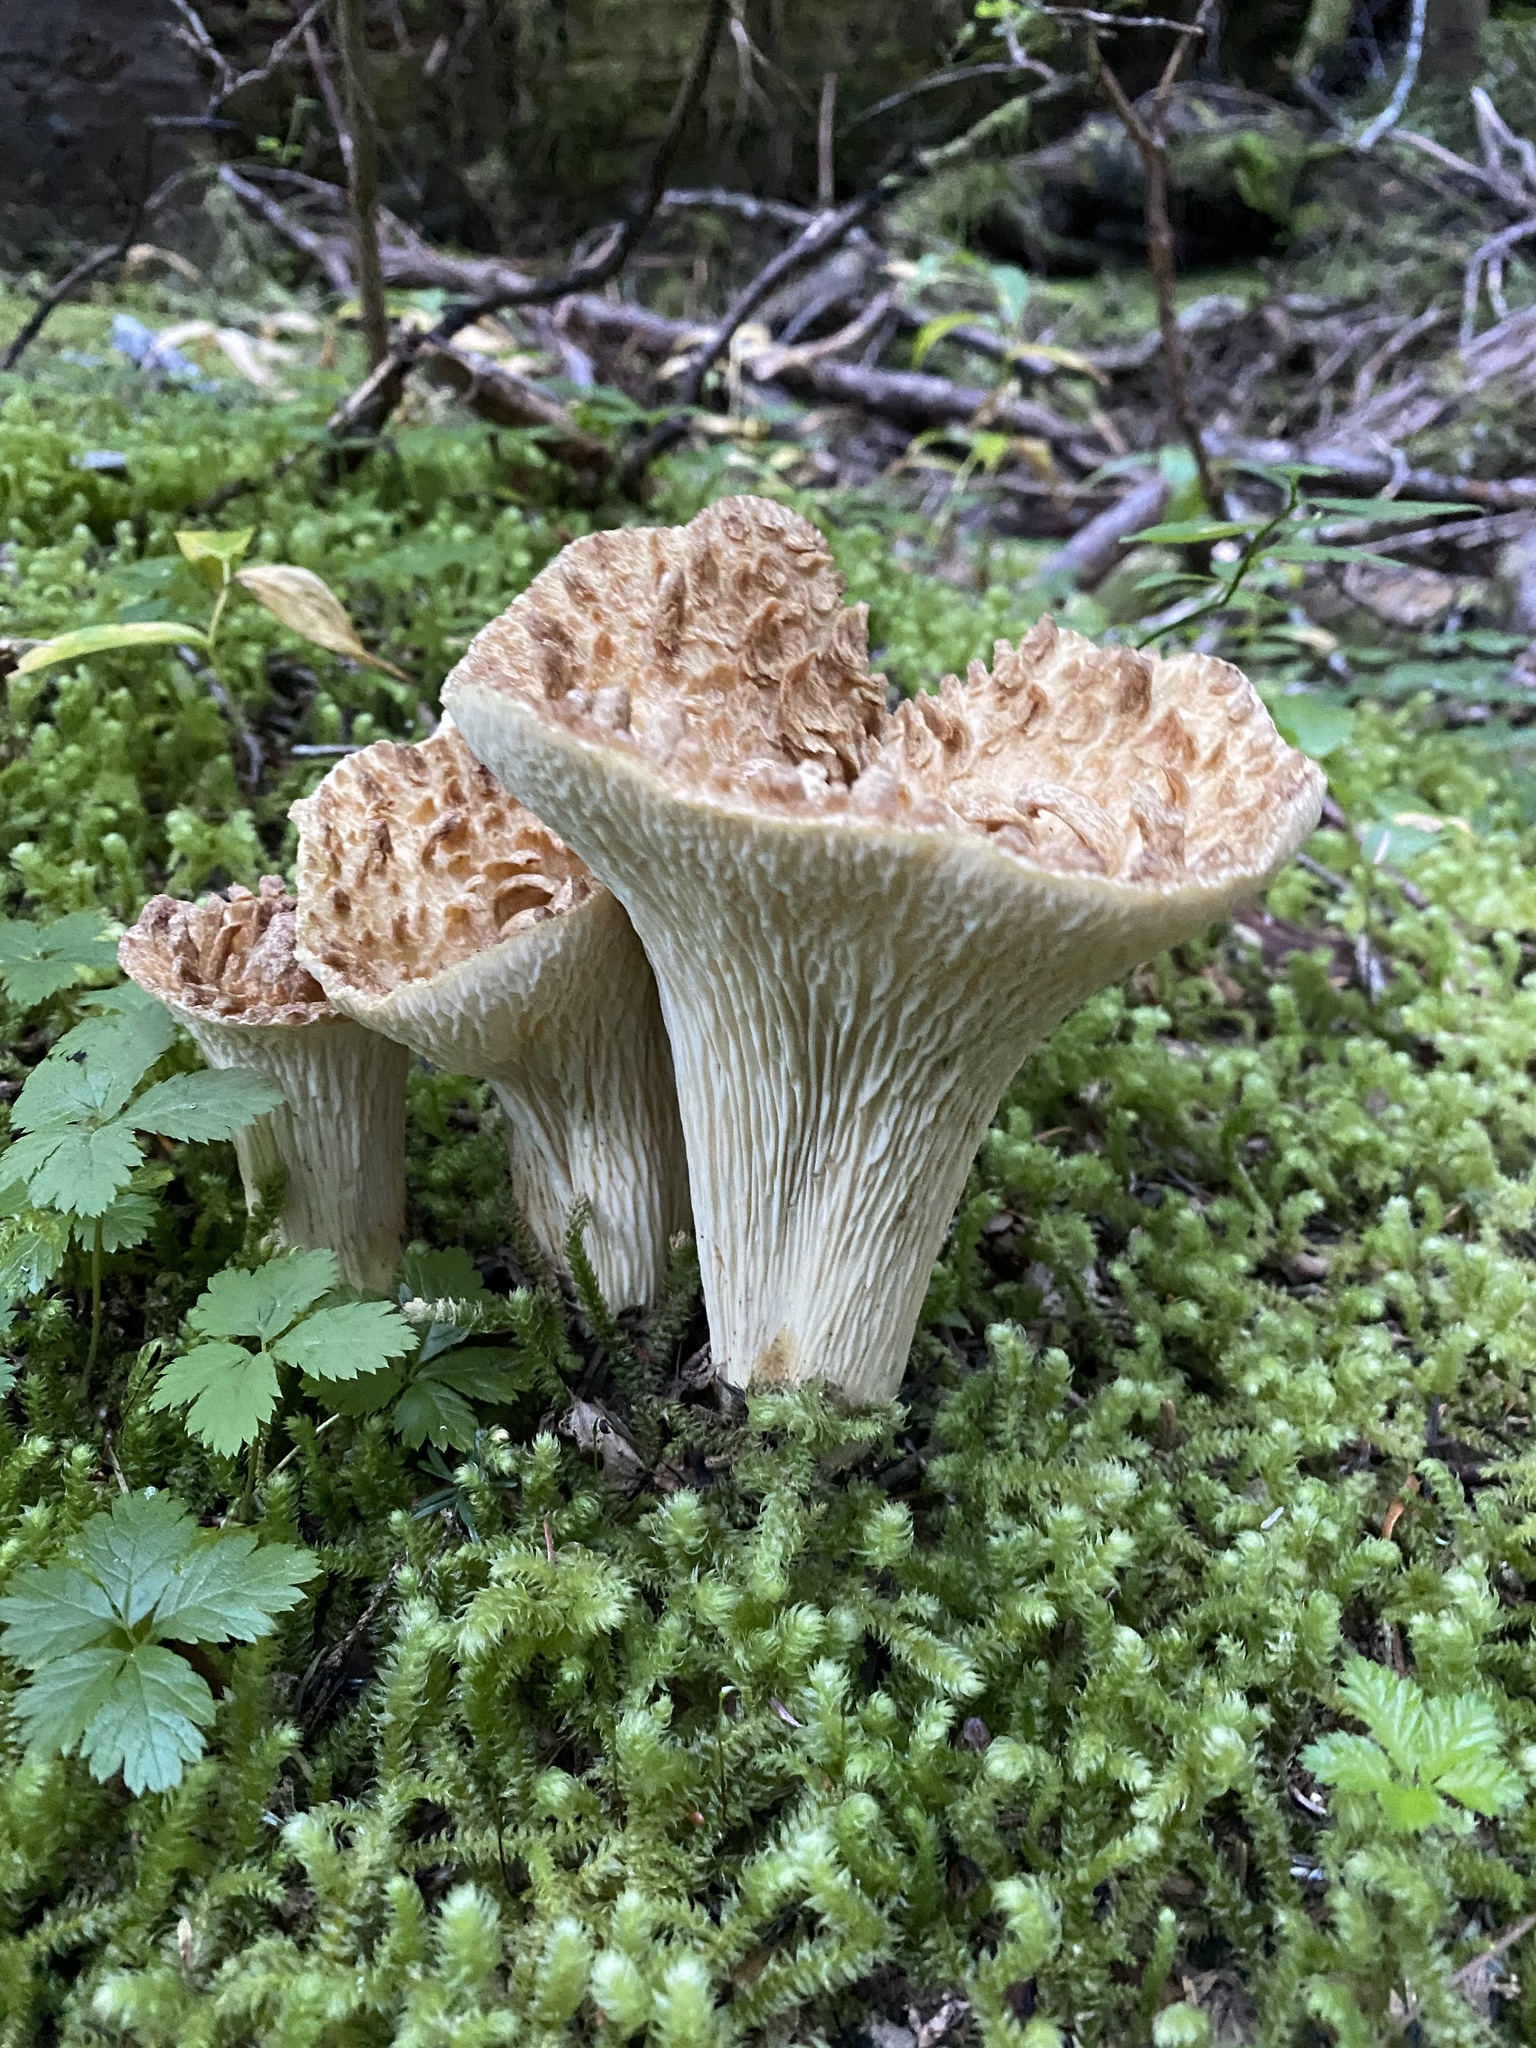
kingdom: Fungi
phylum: Basidiomycota
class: Agaricomycetes
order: Gomphales
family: Gomphaceae
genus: Turbinellus
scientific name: Turbinellus kauffmanii
